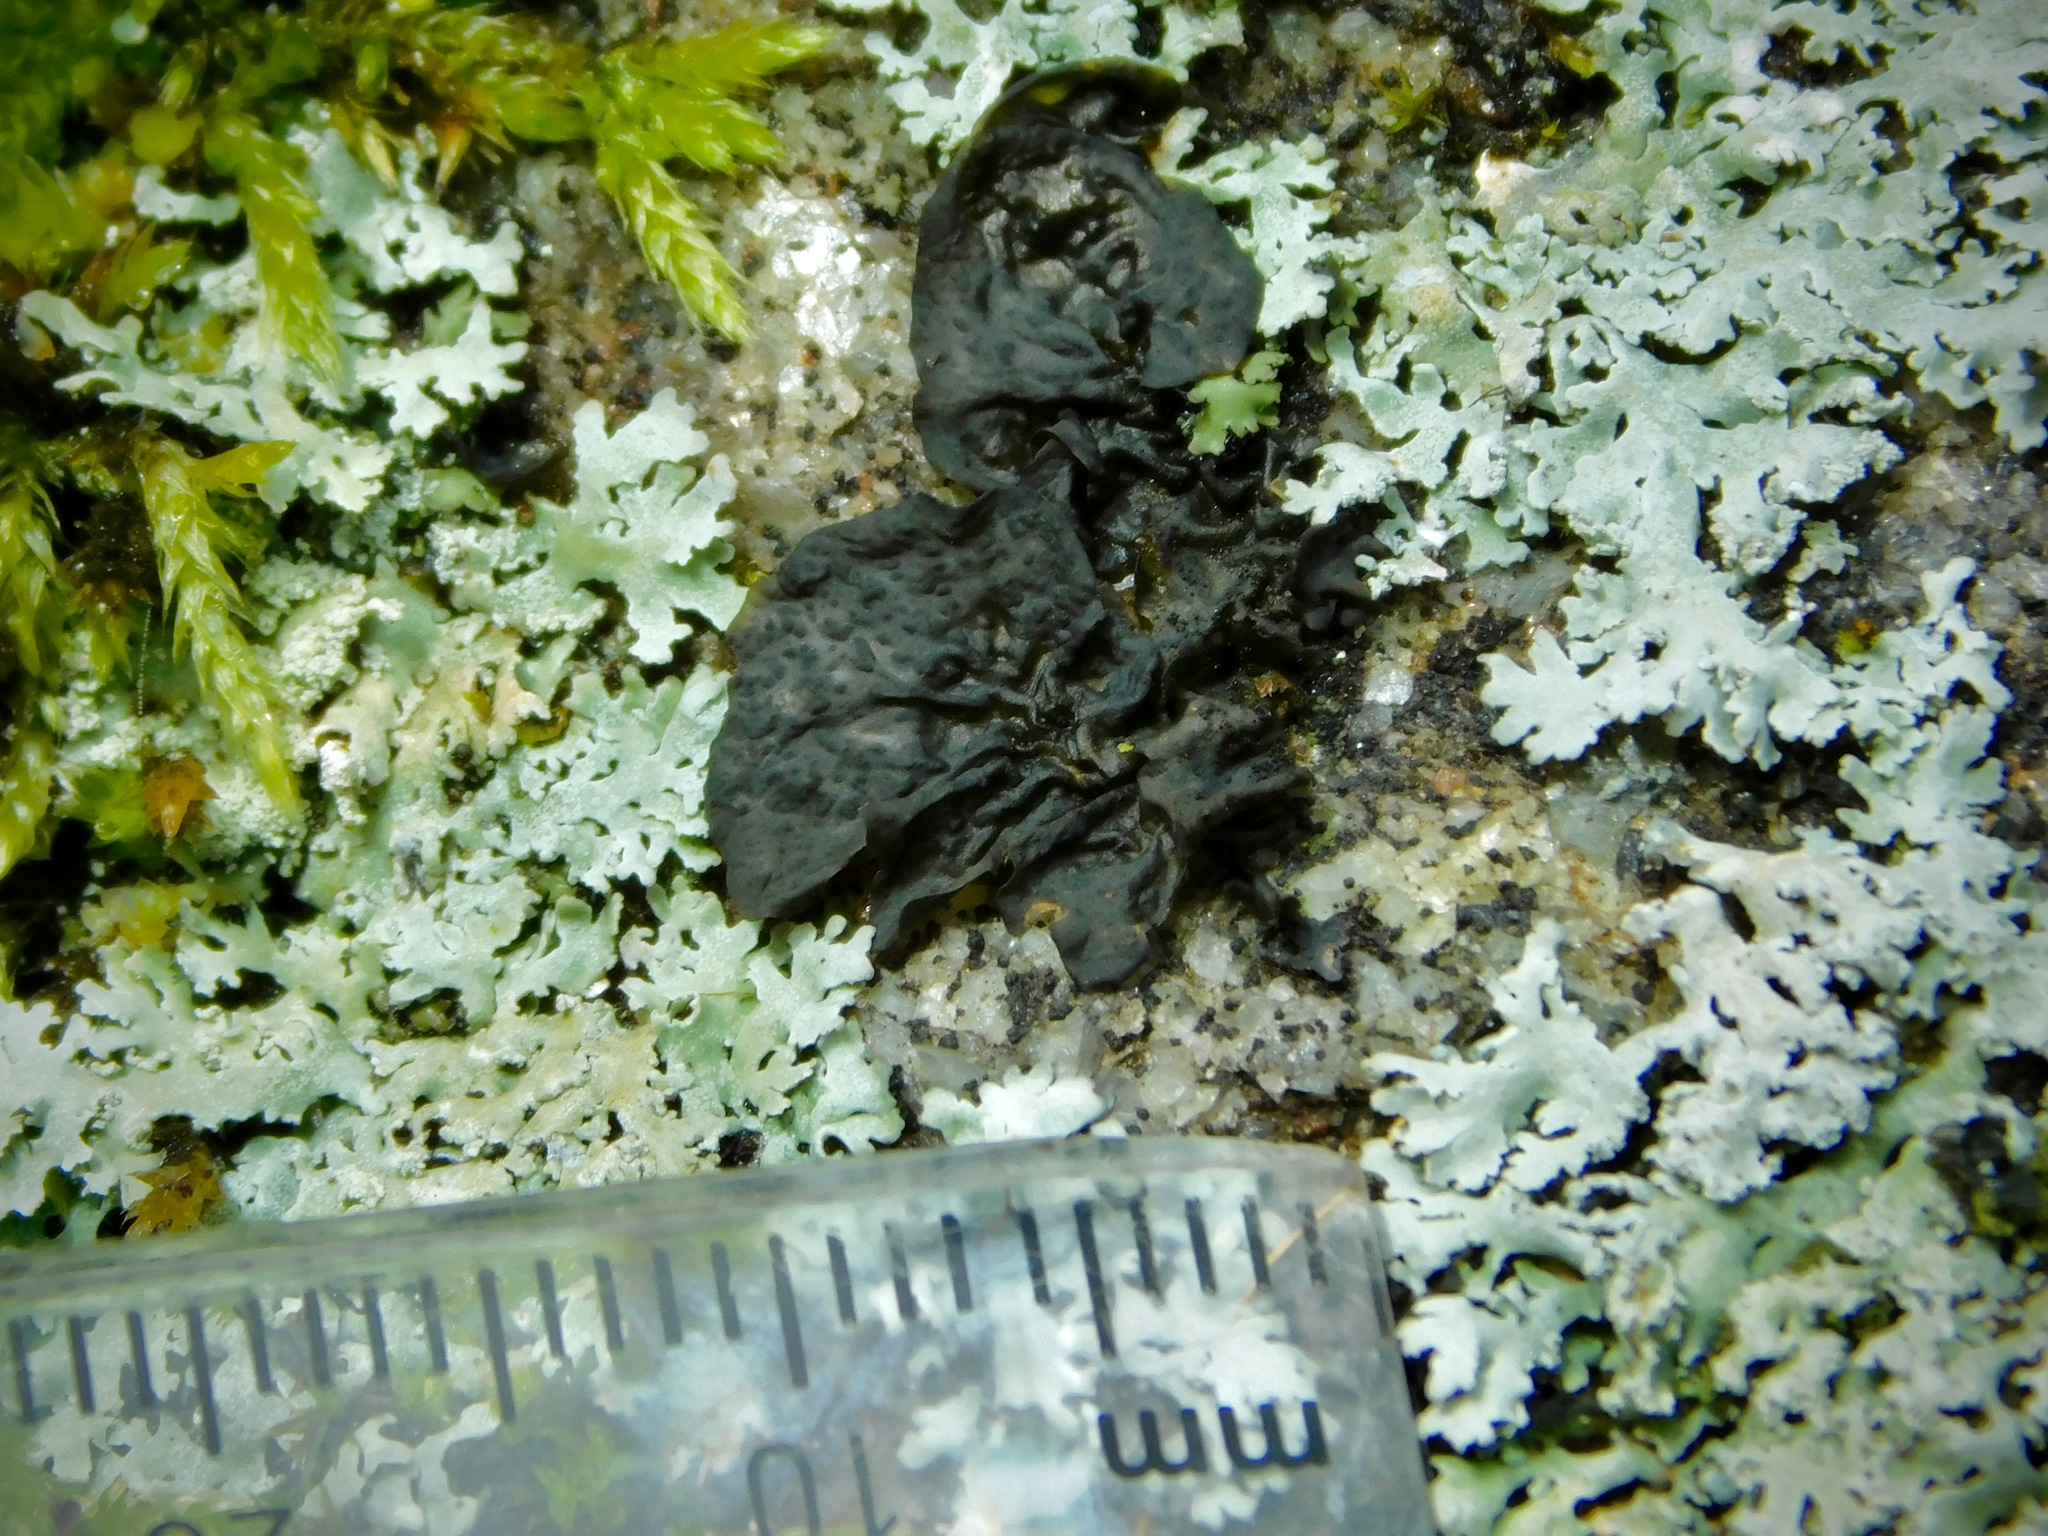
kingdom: Fungi
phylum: Ascomycota
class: Lecanoromycetes
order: Peltigerales
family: Collemataceae
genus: Collema
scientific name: Collema furfuraceum
